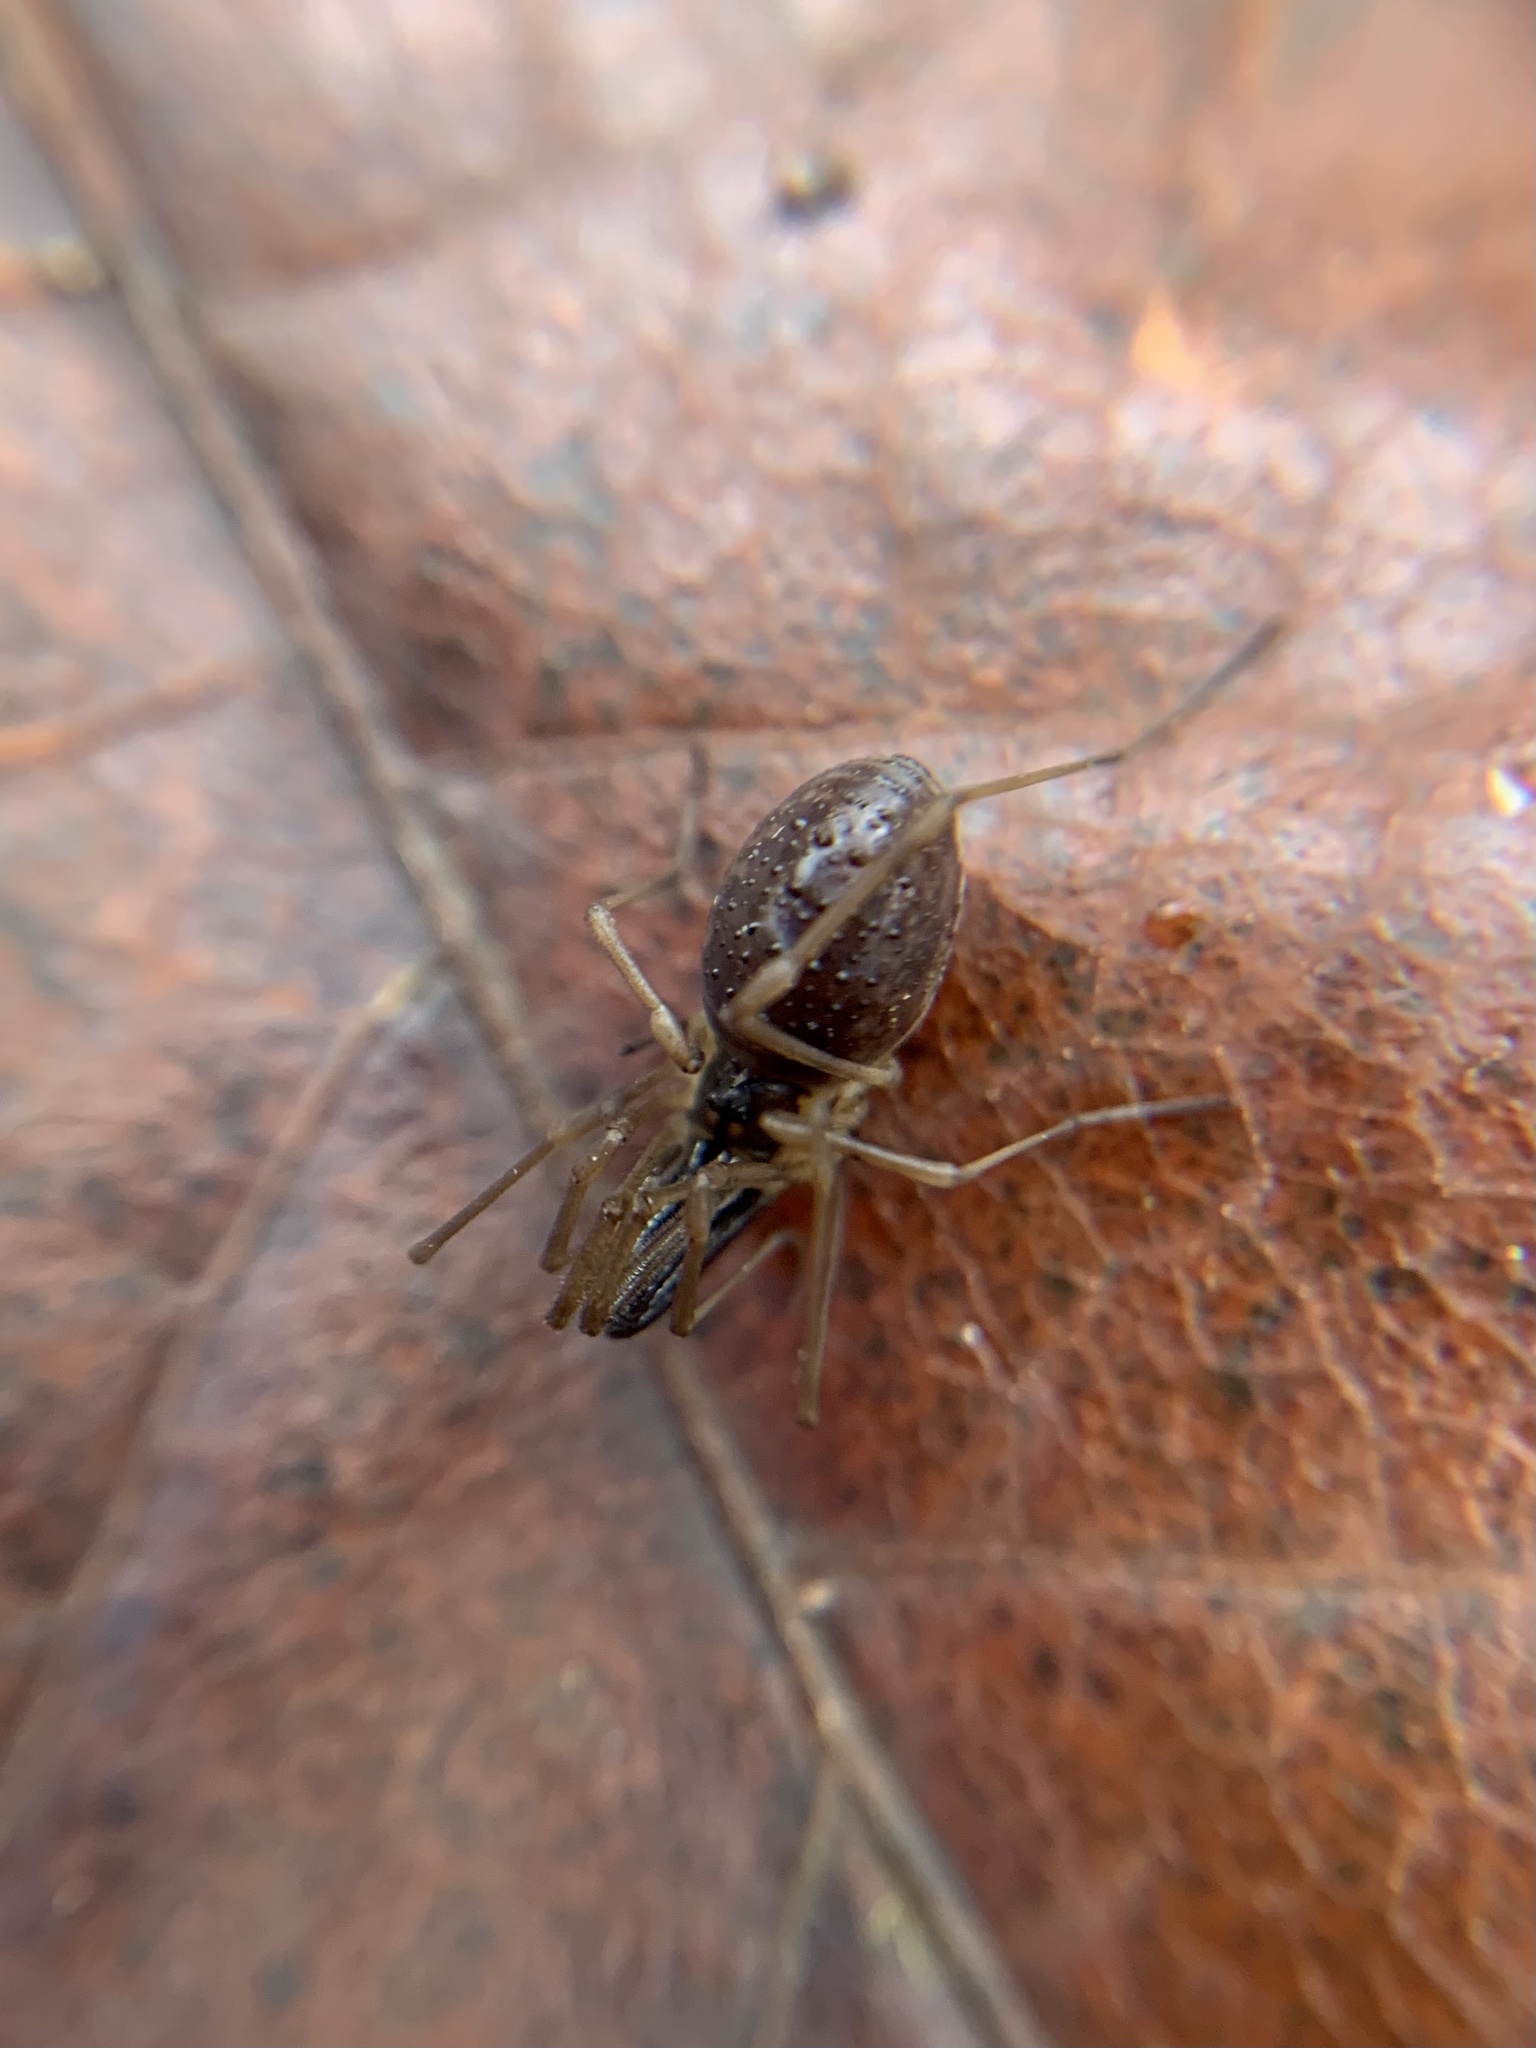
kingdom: Animalia
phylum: Arthropoda
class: Arachnida
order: Opiliones
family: Taracidae
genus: Taracus
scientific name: Taracus pallipes
